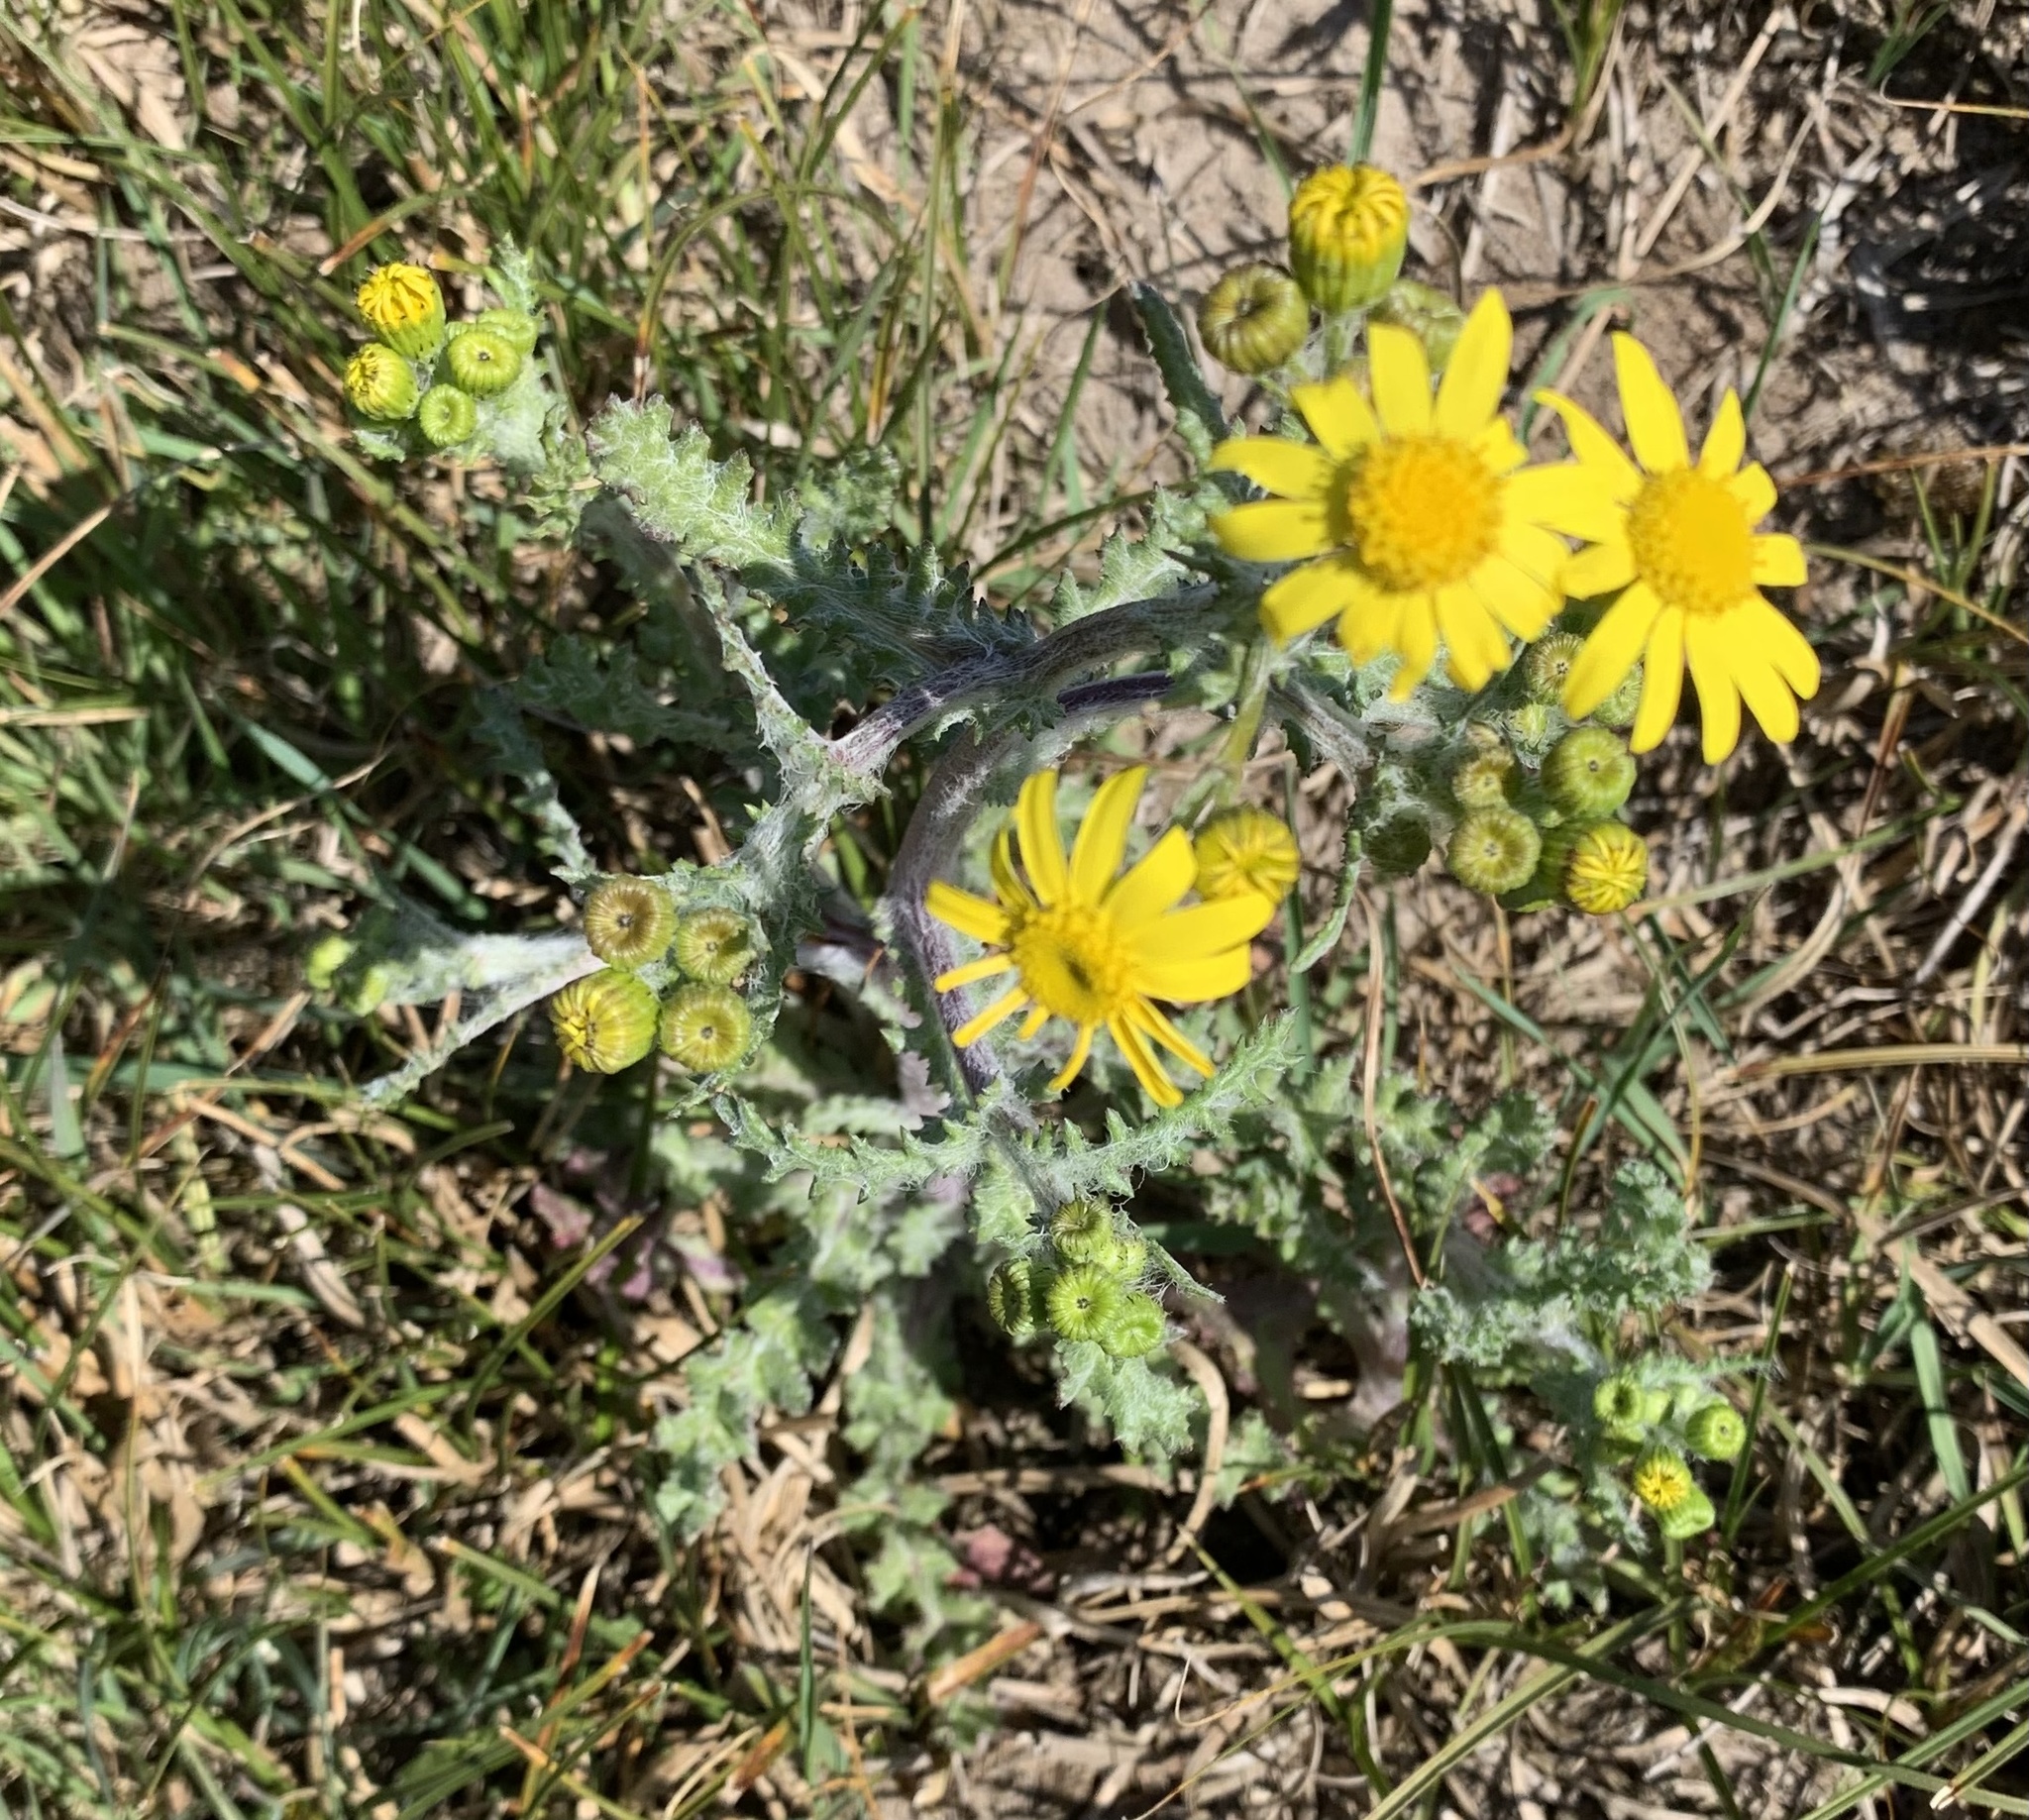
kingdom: Plantae
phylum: Tracheophyta
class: Magnoliopsida
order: Asterales
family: Asteraceae
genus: Senecio
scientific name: Senecio vernalis
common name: Eastern groundsel
